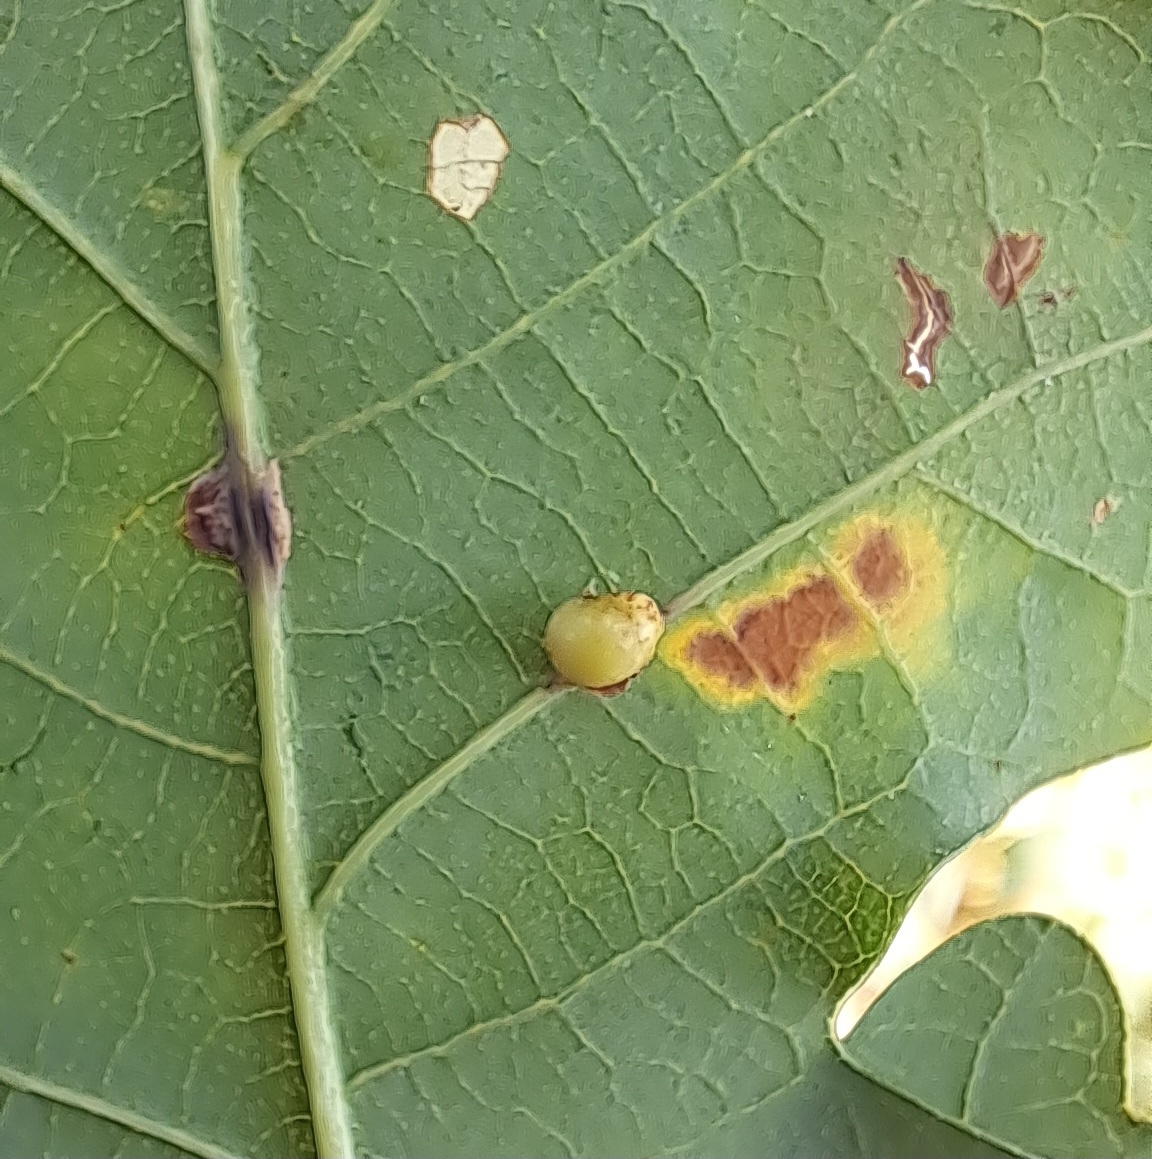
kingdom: Animalia
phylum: Arthropoda
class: Insecta
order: Hymenoptera
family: Cynipidae
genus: Neuroterus
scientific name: Neuroterus anthracinus
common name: Oyster gall
